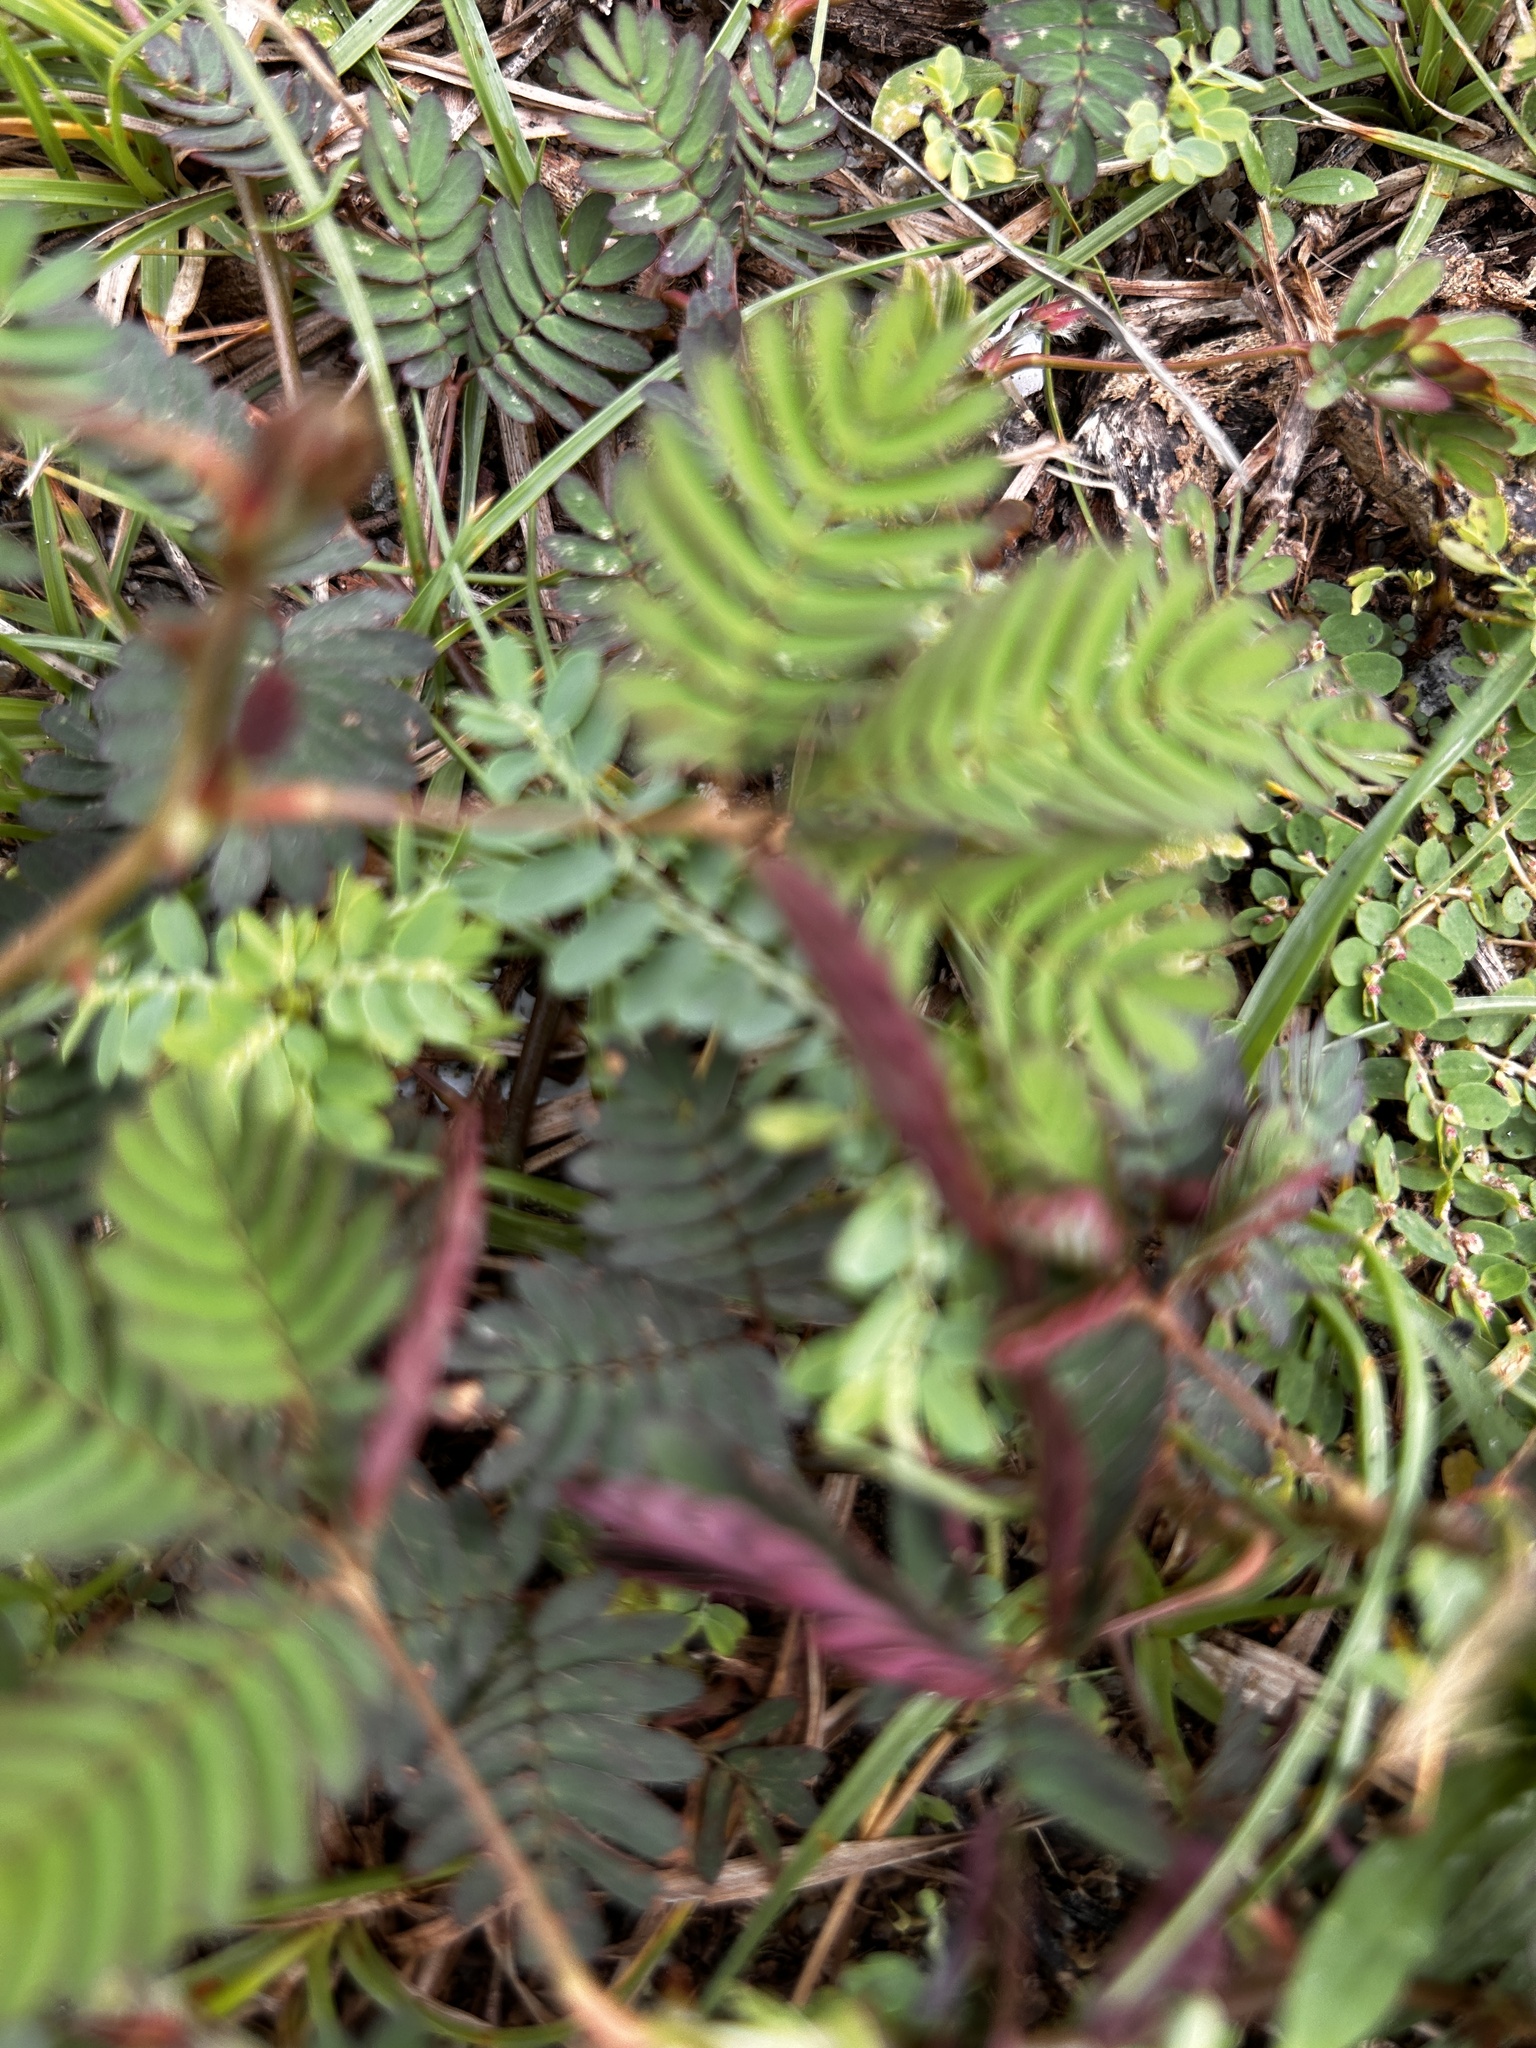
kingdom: Plantae
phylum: Tracheophyta
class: Magnoliopsida
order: Fabales
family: Fabaceae
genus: Mimosa
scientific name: Mimosa pudica
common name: Sensitive plant
